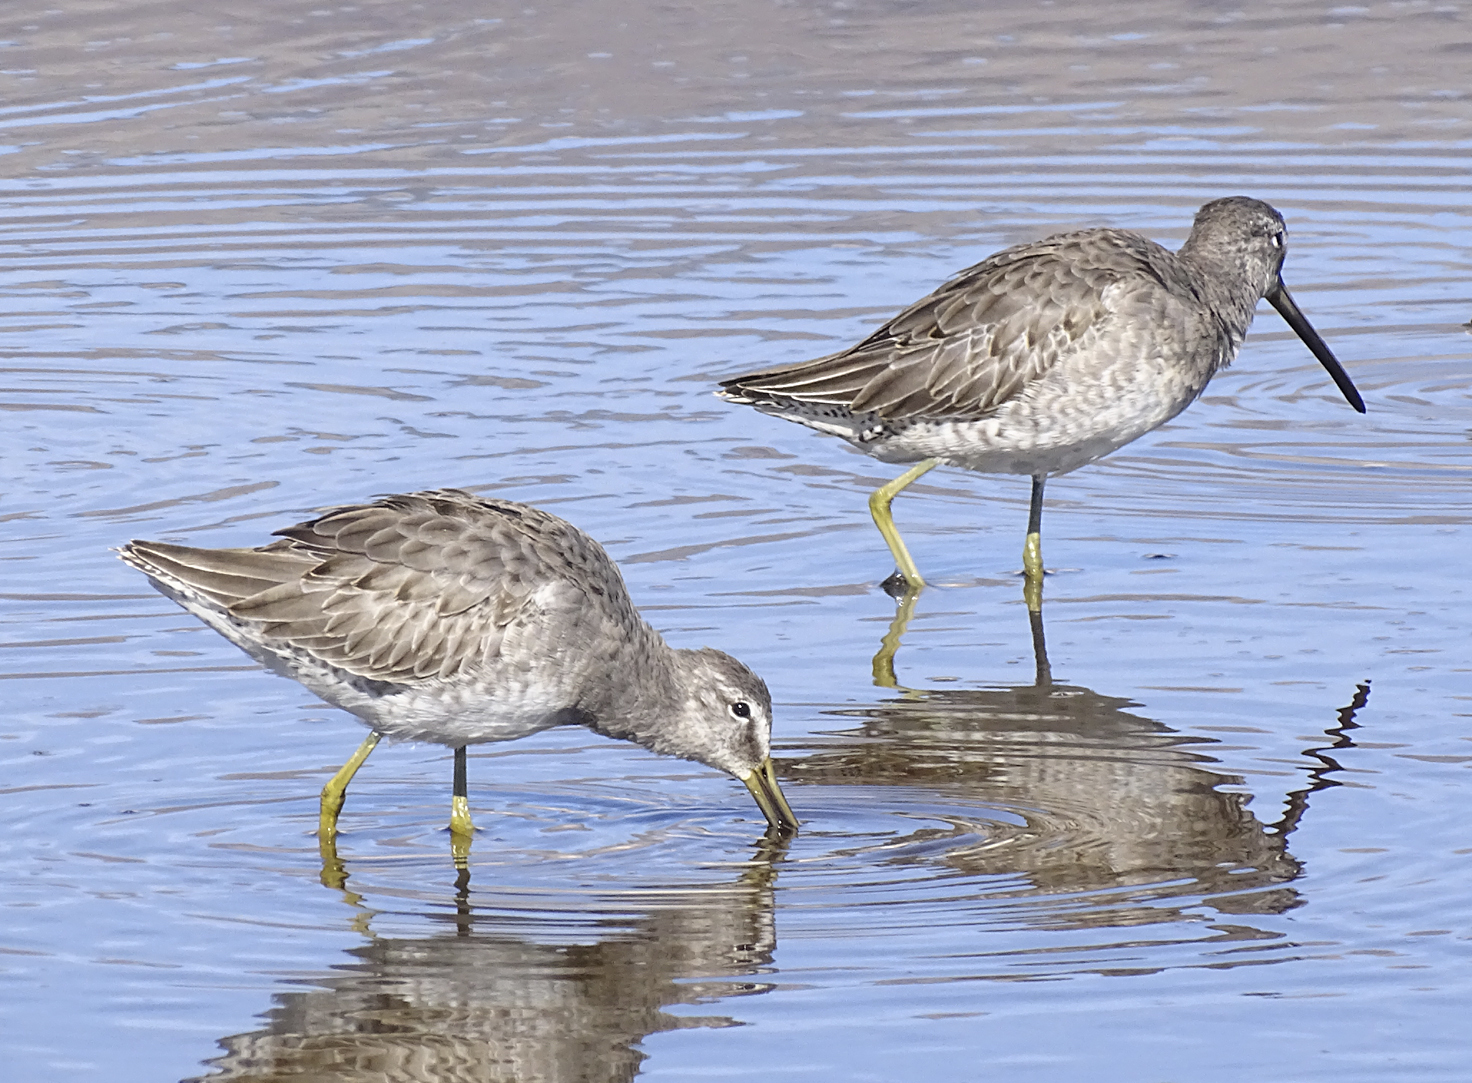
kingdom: Animalia
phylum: Chordata
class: Aves
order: Charadriiformes
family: Scolopacidae
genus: Limnodromus
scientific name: Limnodromus scolopaceus
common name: Long-billed dowitcher
